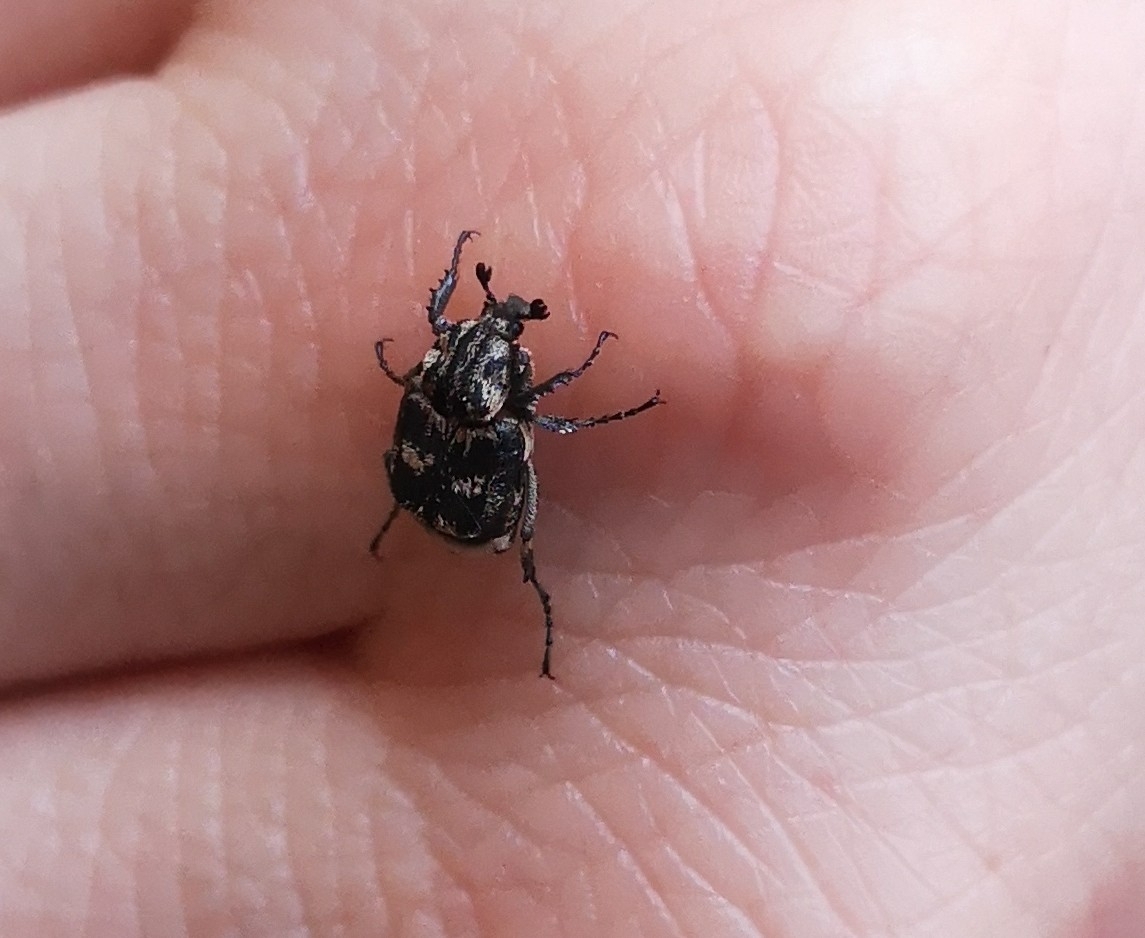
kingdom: Animalia
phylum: Arthropoda
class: Insecta
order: Coleoptera
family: Scarabaeidae
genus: Valgus
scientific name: Valgus hemipterus
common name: Bug flower chafer
